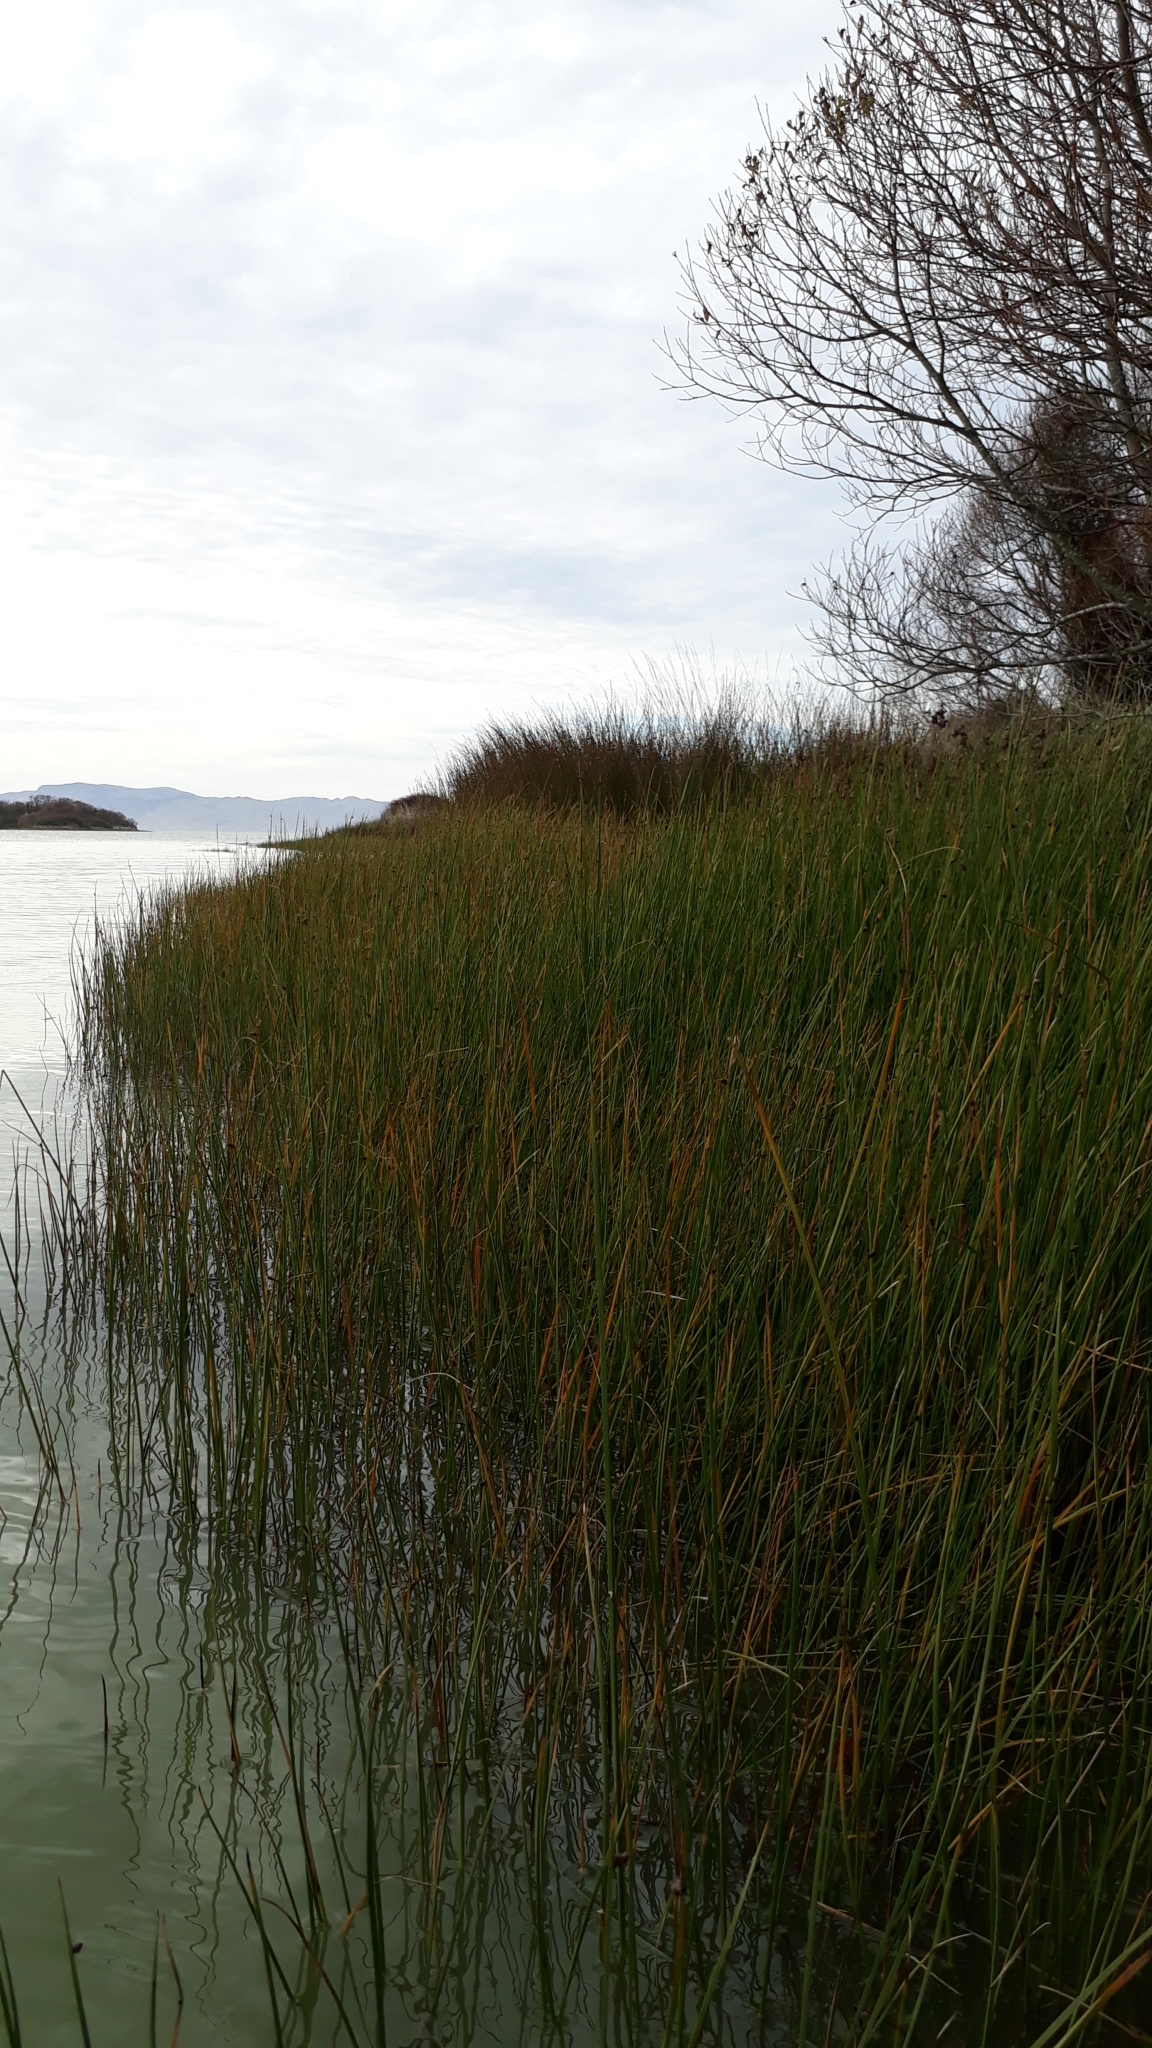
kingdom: Plantae
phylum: Tracheophyta
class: Liliopsida
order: Poales
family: Cyperaceae
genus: Schoenoplectus
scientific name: Schoenoplectus pungens
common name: Sharp club-rush
